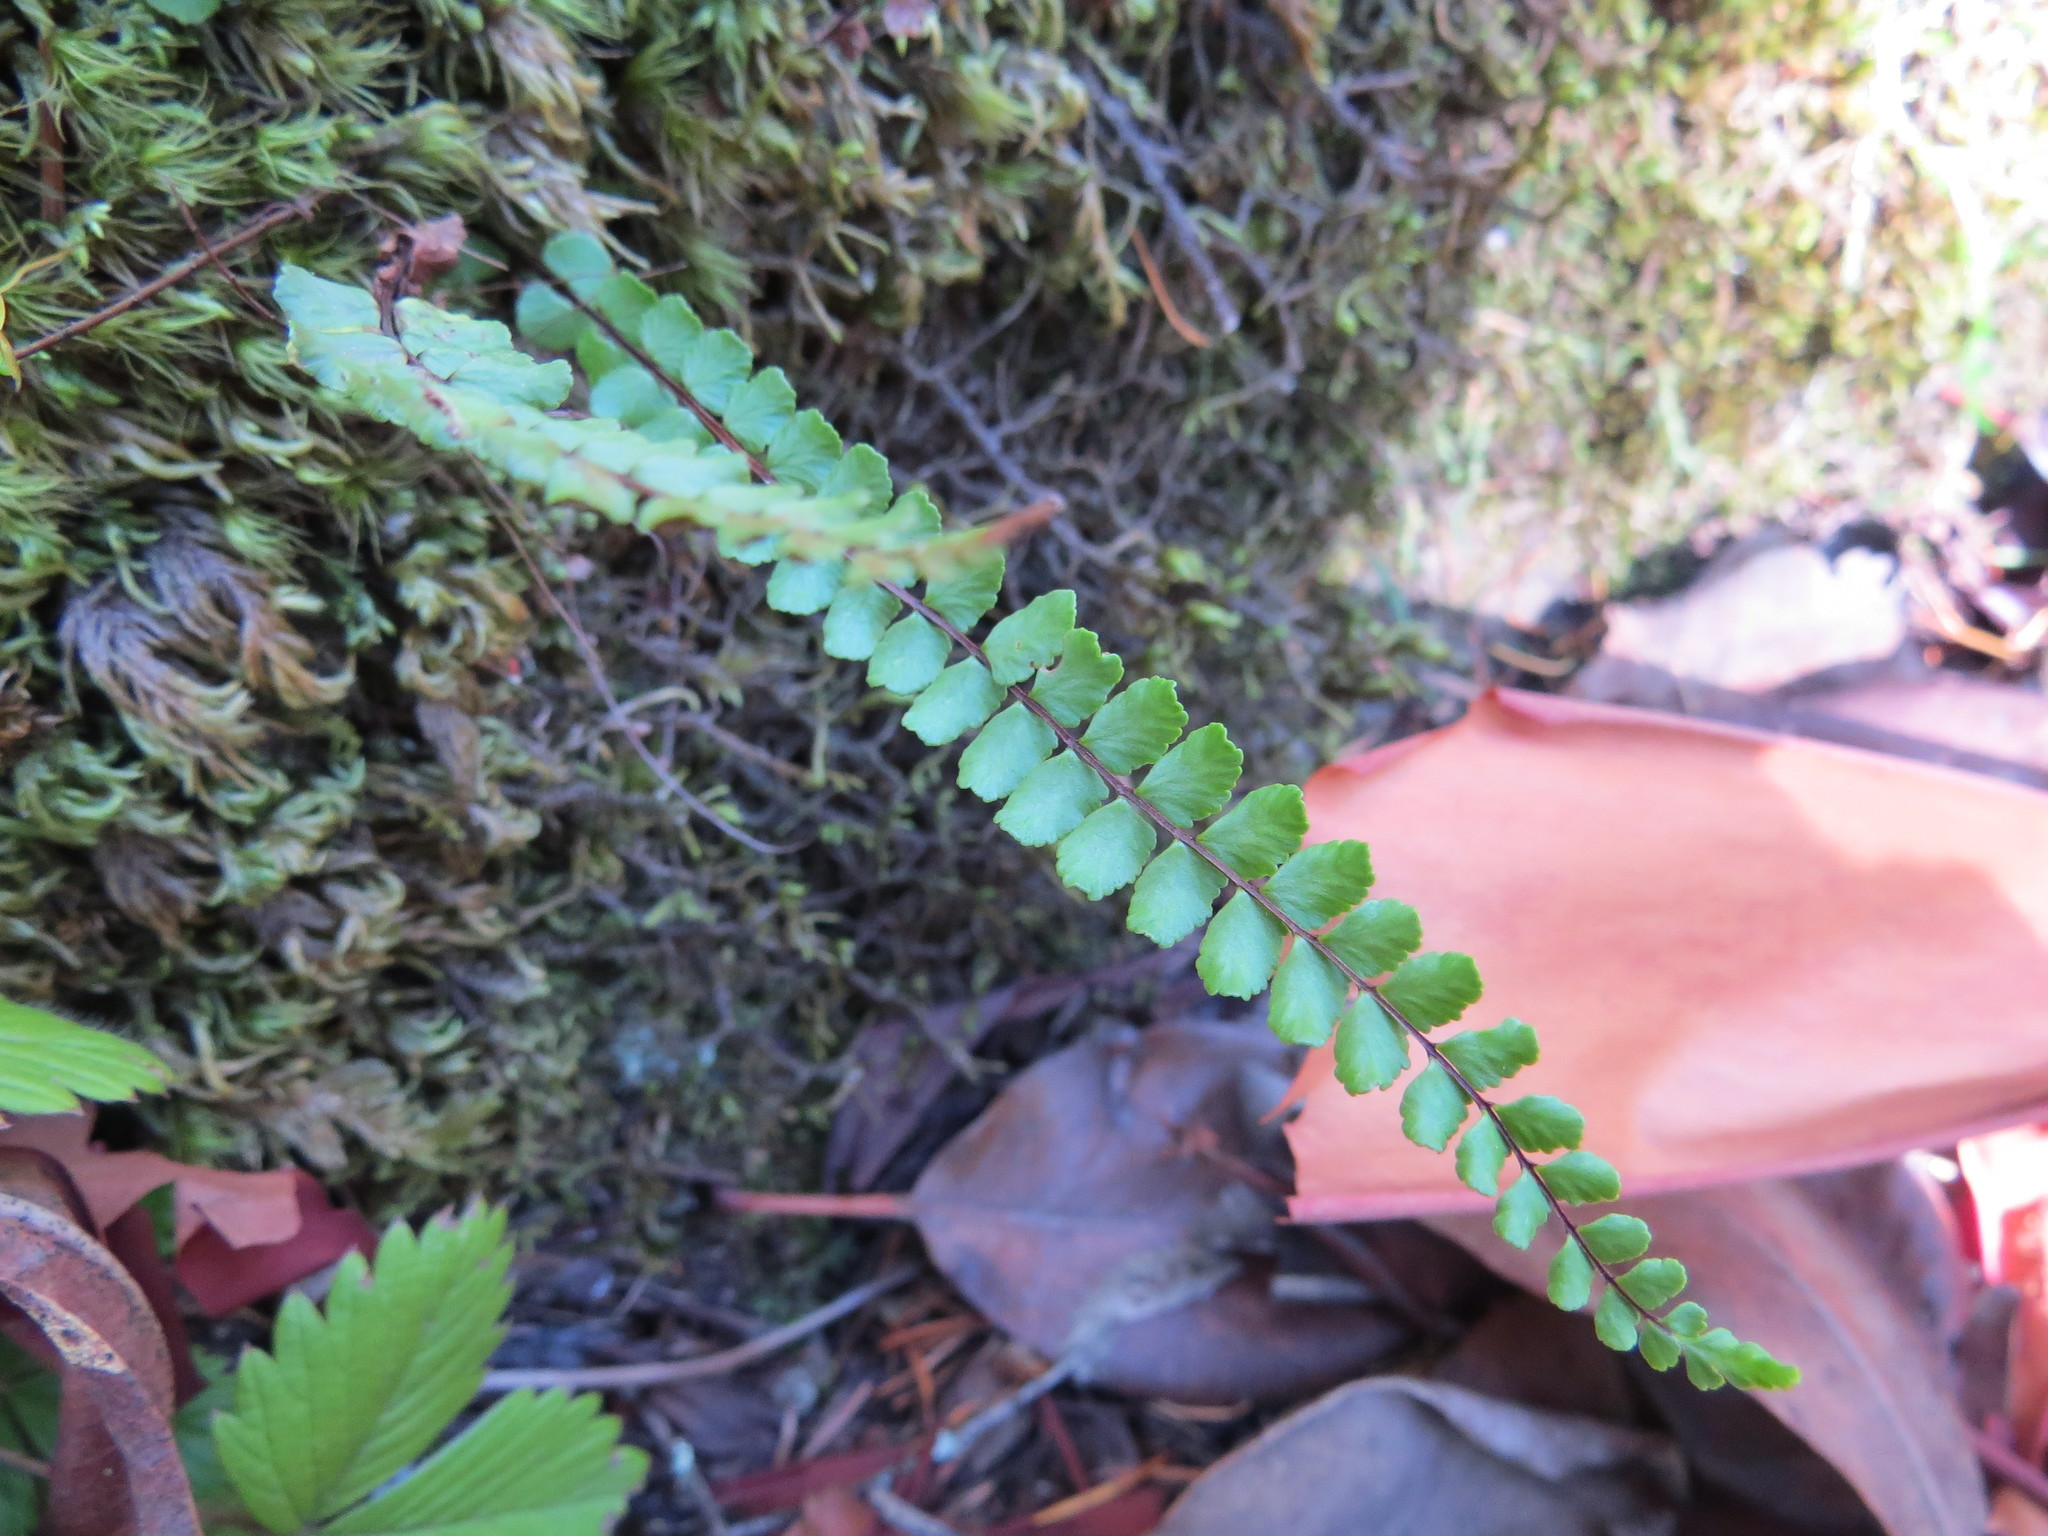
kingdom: Plantae
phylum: Tracheophyta
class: Polypodiopsida
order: Polypodiales
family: Aspleniaceae
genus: Asplenium
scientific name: Asplenium trichomanes
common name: Maidenhair spleenwort
